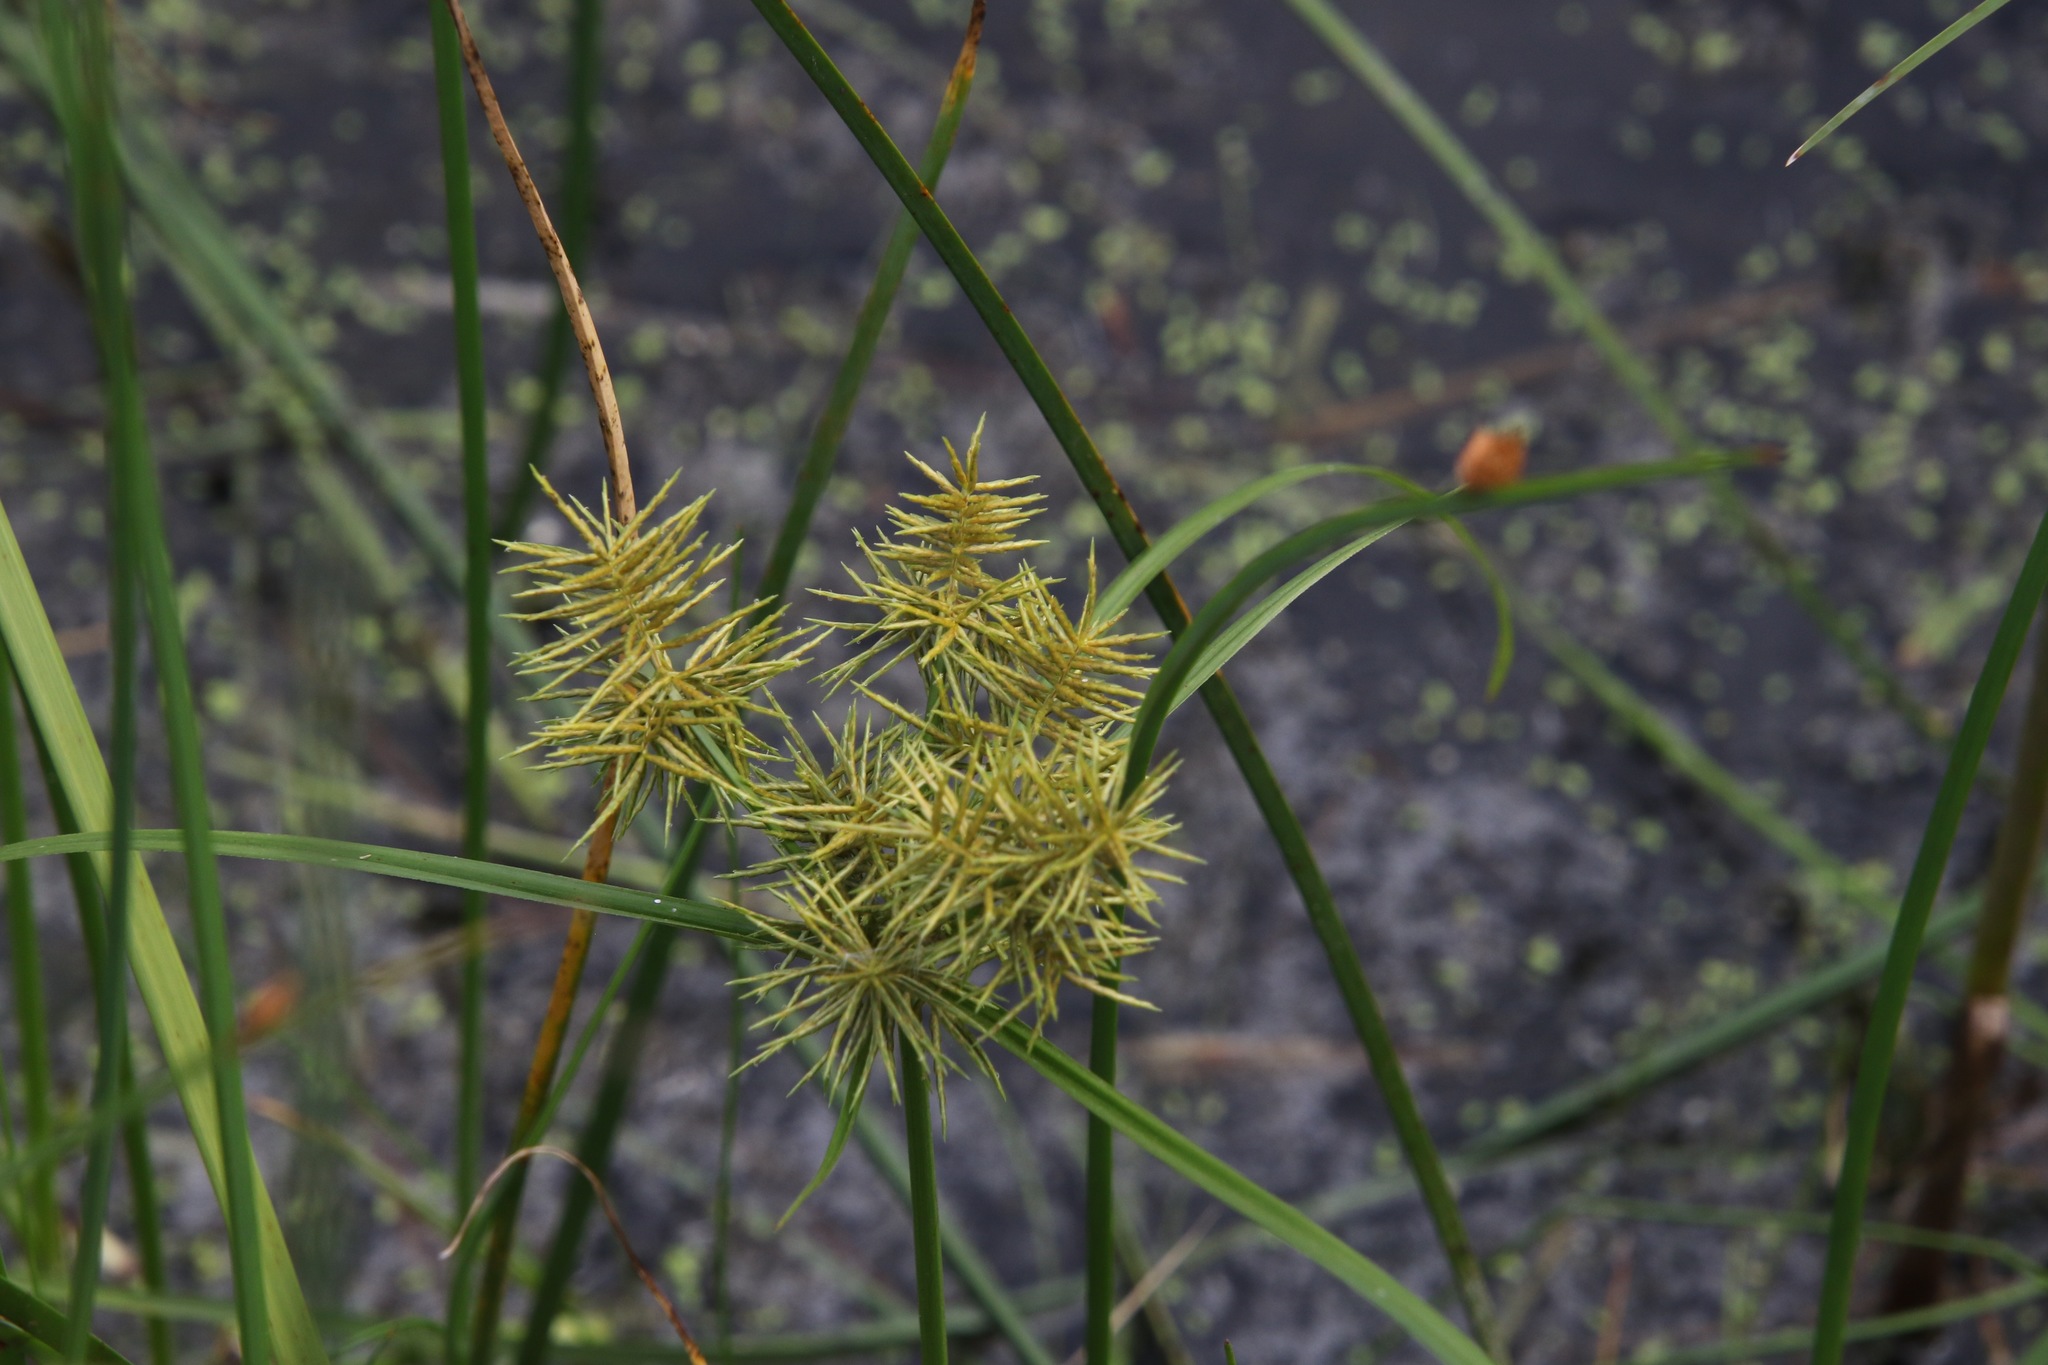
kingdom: Plantae
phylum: Tracheophyta
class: Liliopsida
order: Poales
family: Cyperaceae
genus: Cyperus
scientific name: Cyperus odoratus
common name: Fragrant flatsedge
